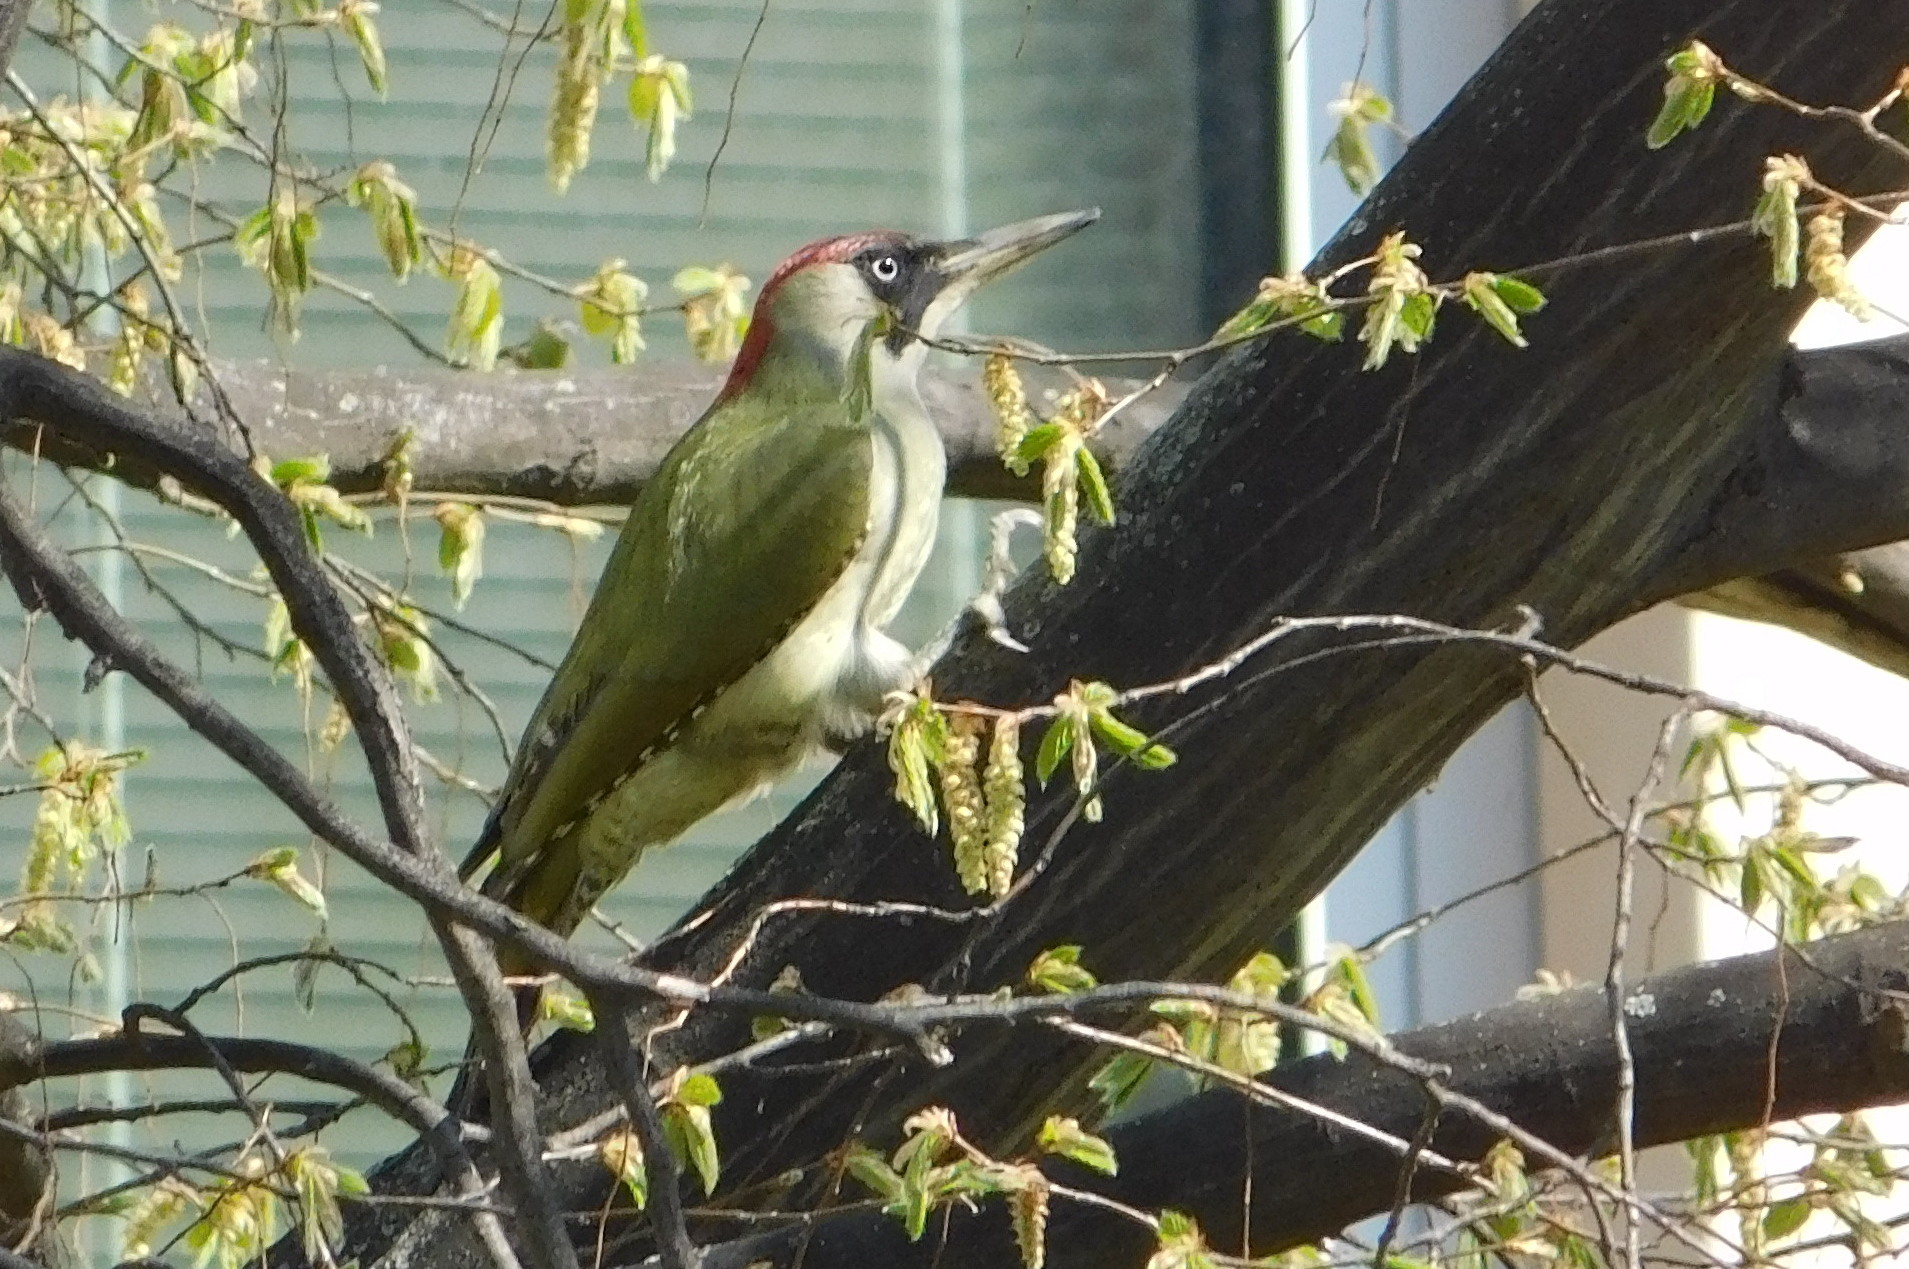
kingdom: Animalia
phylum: Chordata
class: Aves
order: Piciformes
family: Picidae
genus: Picus
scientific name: Picus viridis
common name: European green woodpecker
